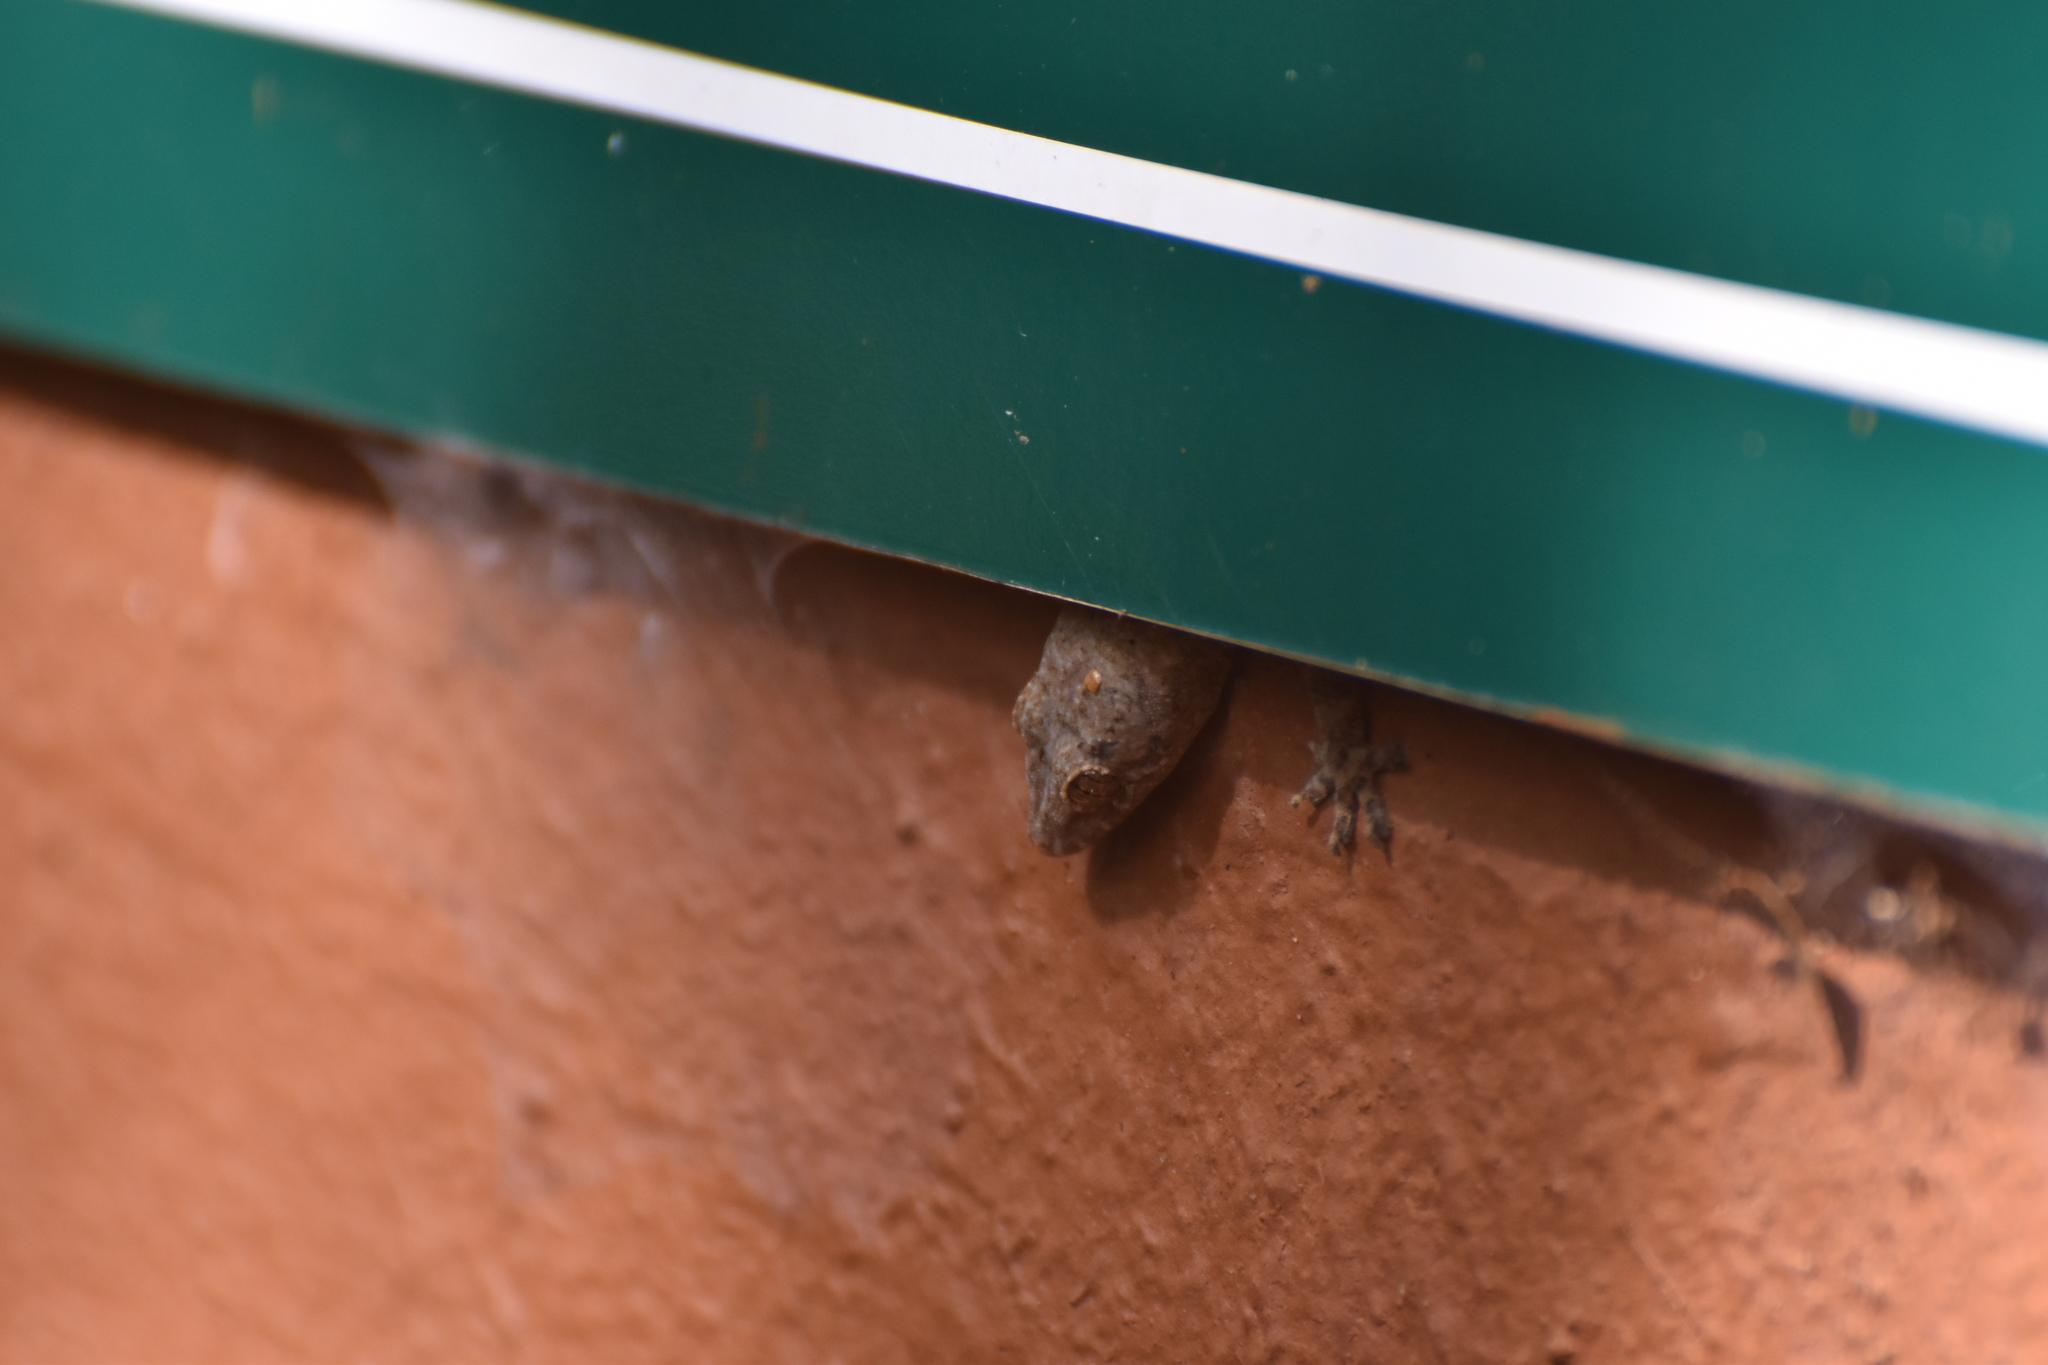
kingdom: Animalia
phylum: Chordata
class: Squamata
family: Gekkonidae
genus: Hemidactylus
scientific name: Hemidactylus mabouia
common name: House gecko
